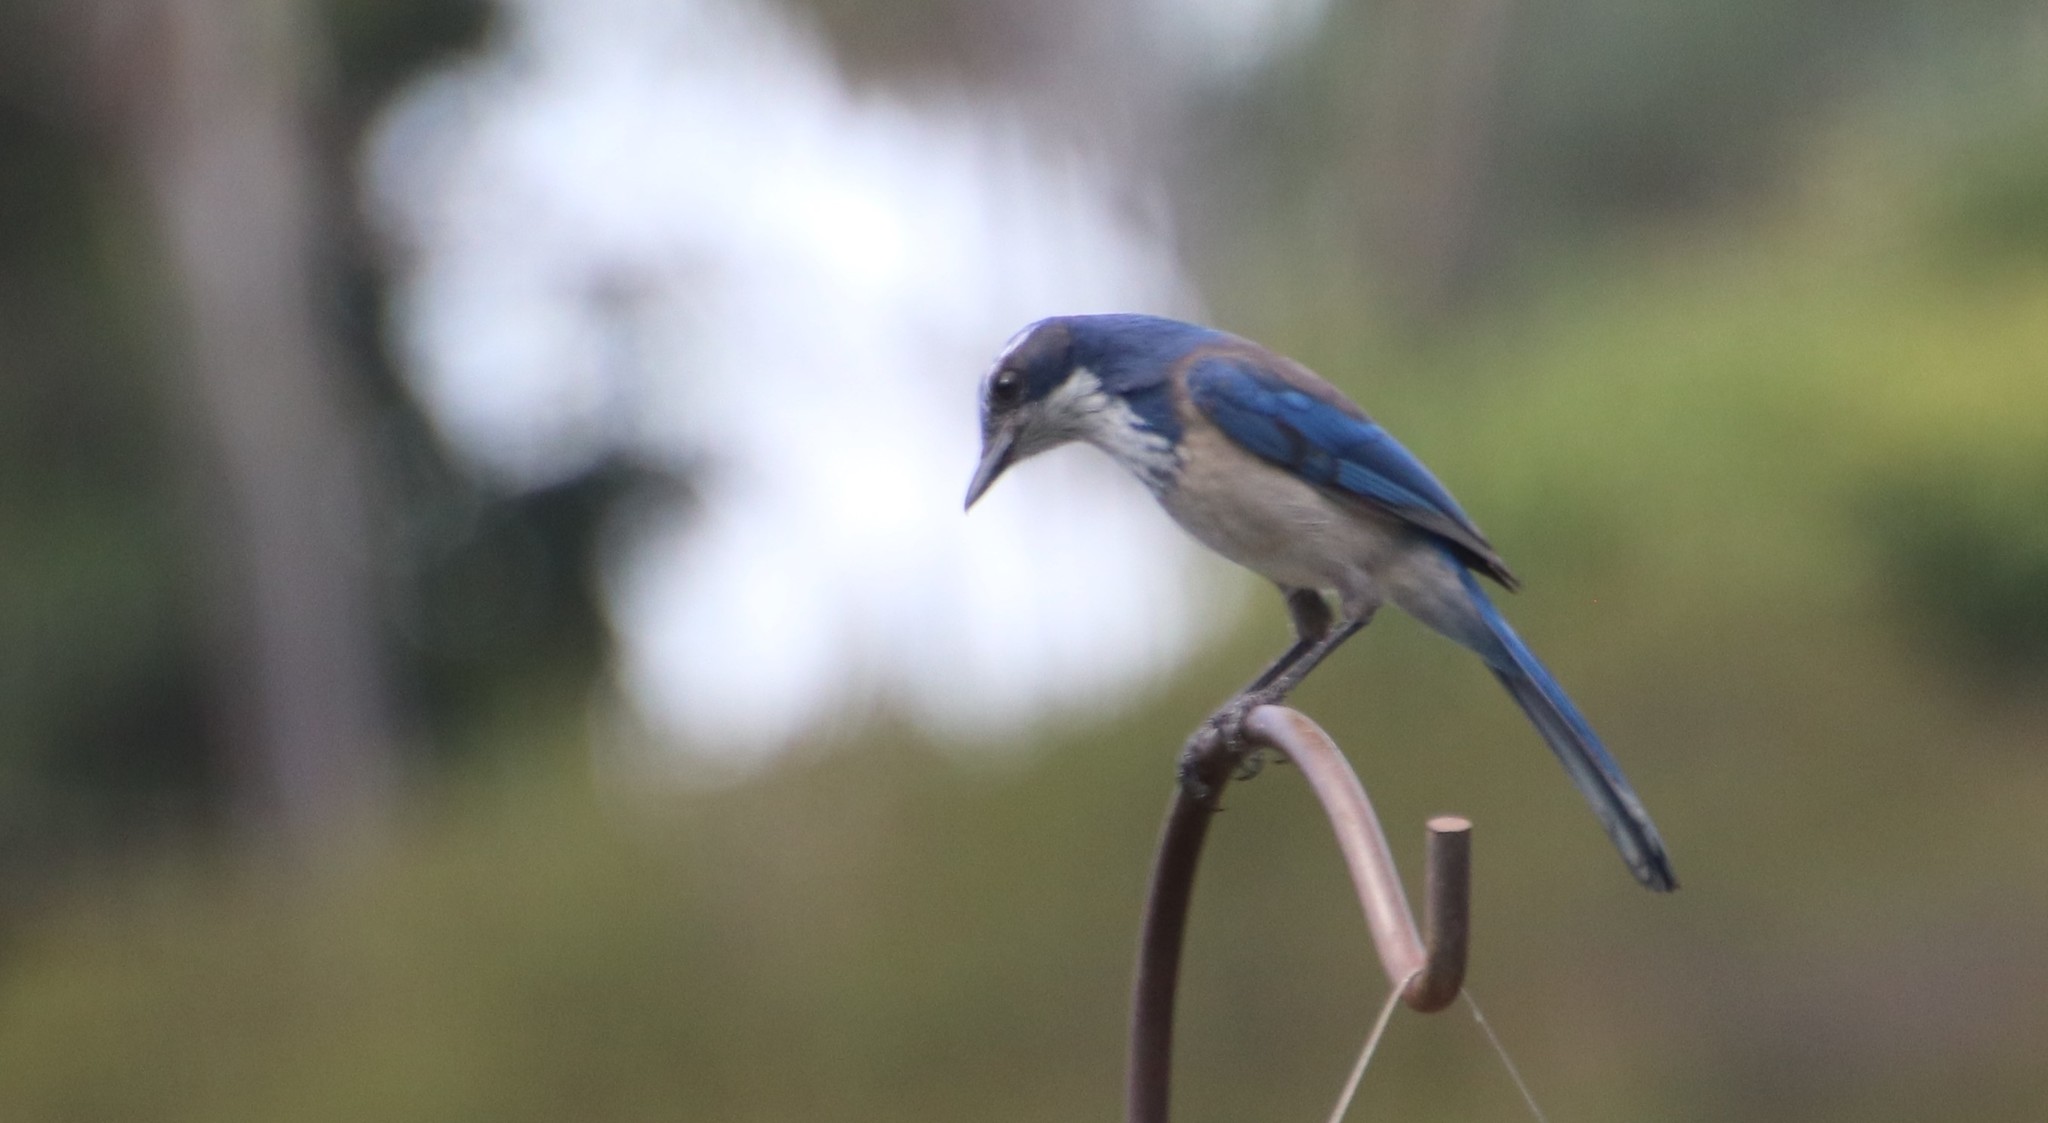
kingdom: Animalia
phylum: Chordata
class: Aves
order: Passeriformes
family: Corvidae
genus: Aphelocoma
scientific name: Aphelocoma californica
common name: California scrub-jay
